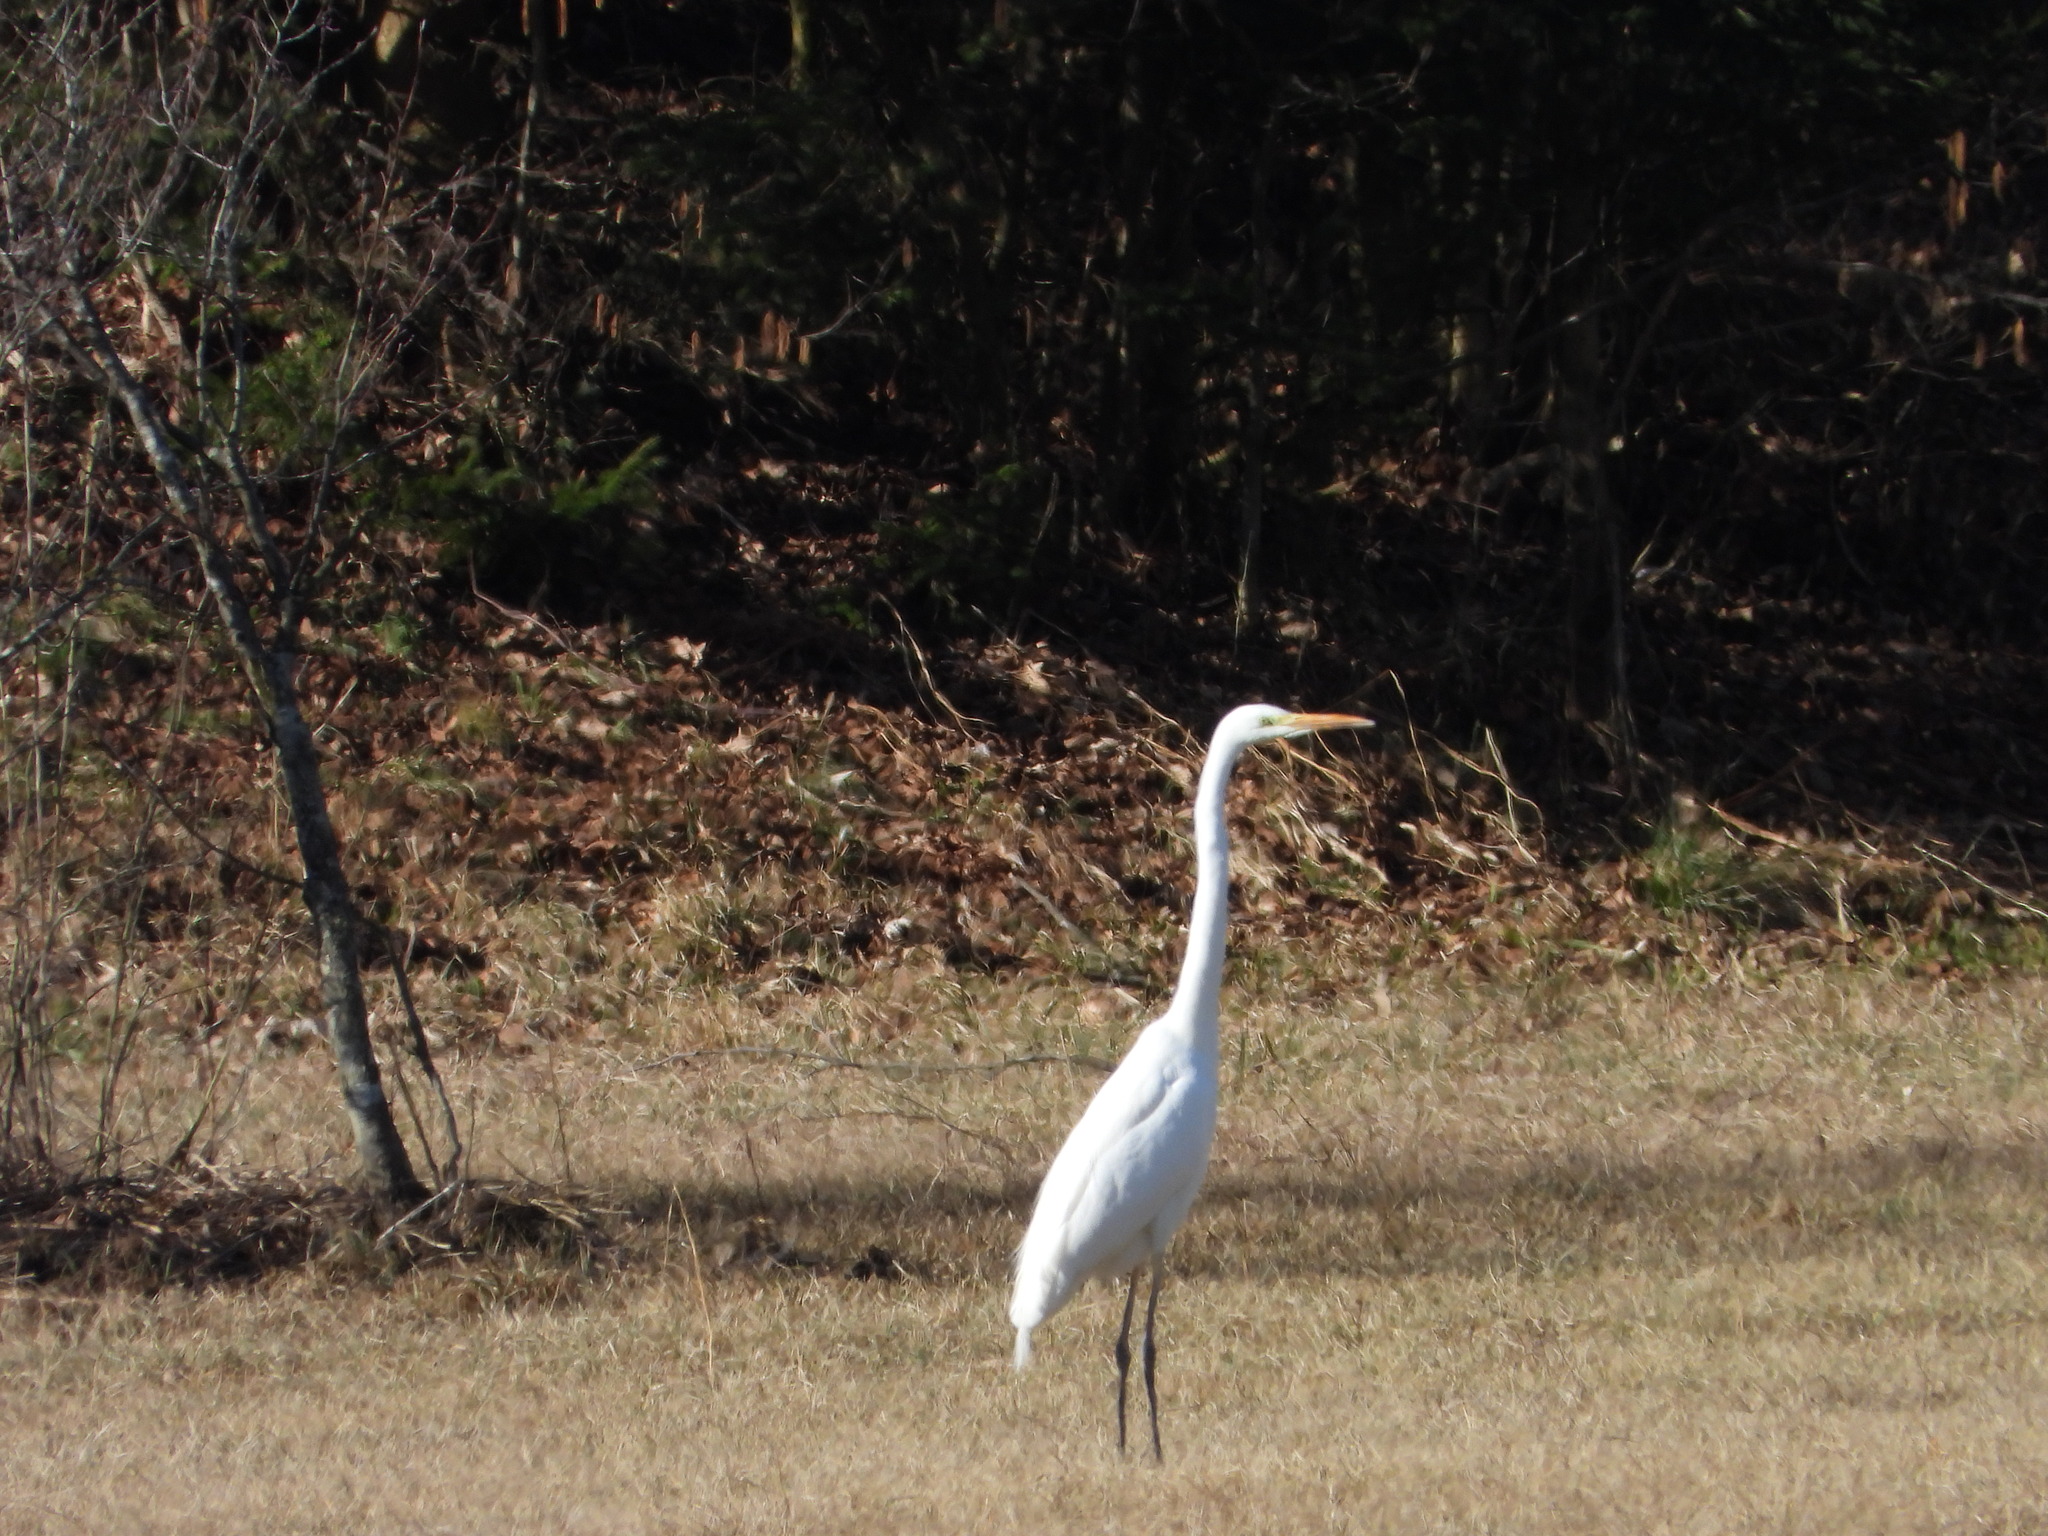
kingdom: Animalia
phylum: Chordata
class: Aves
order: Pelecaniformes
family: Ardeidae
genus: Ardea
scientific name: Ardea alba
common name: Great egret
